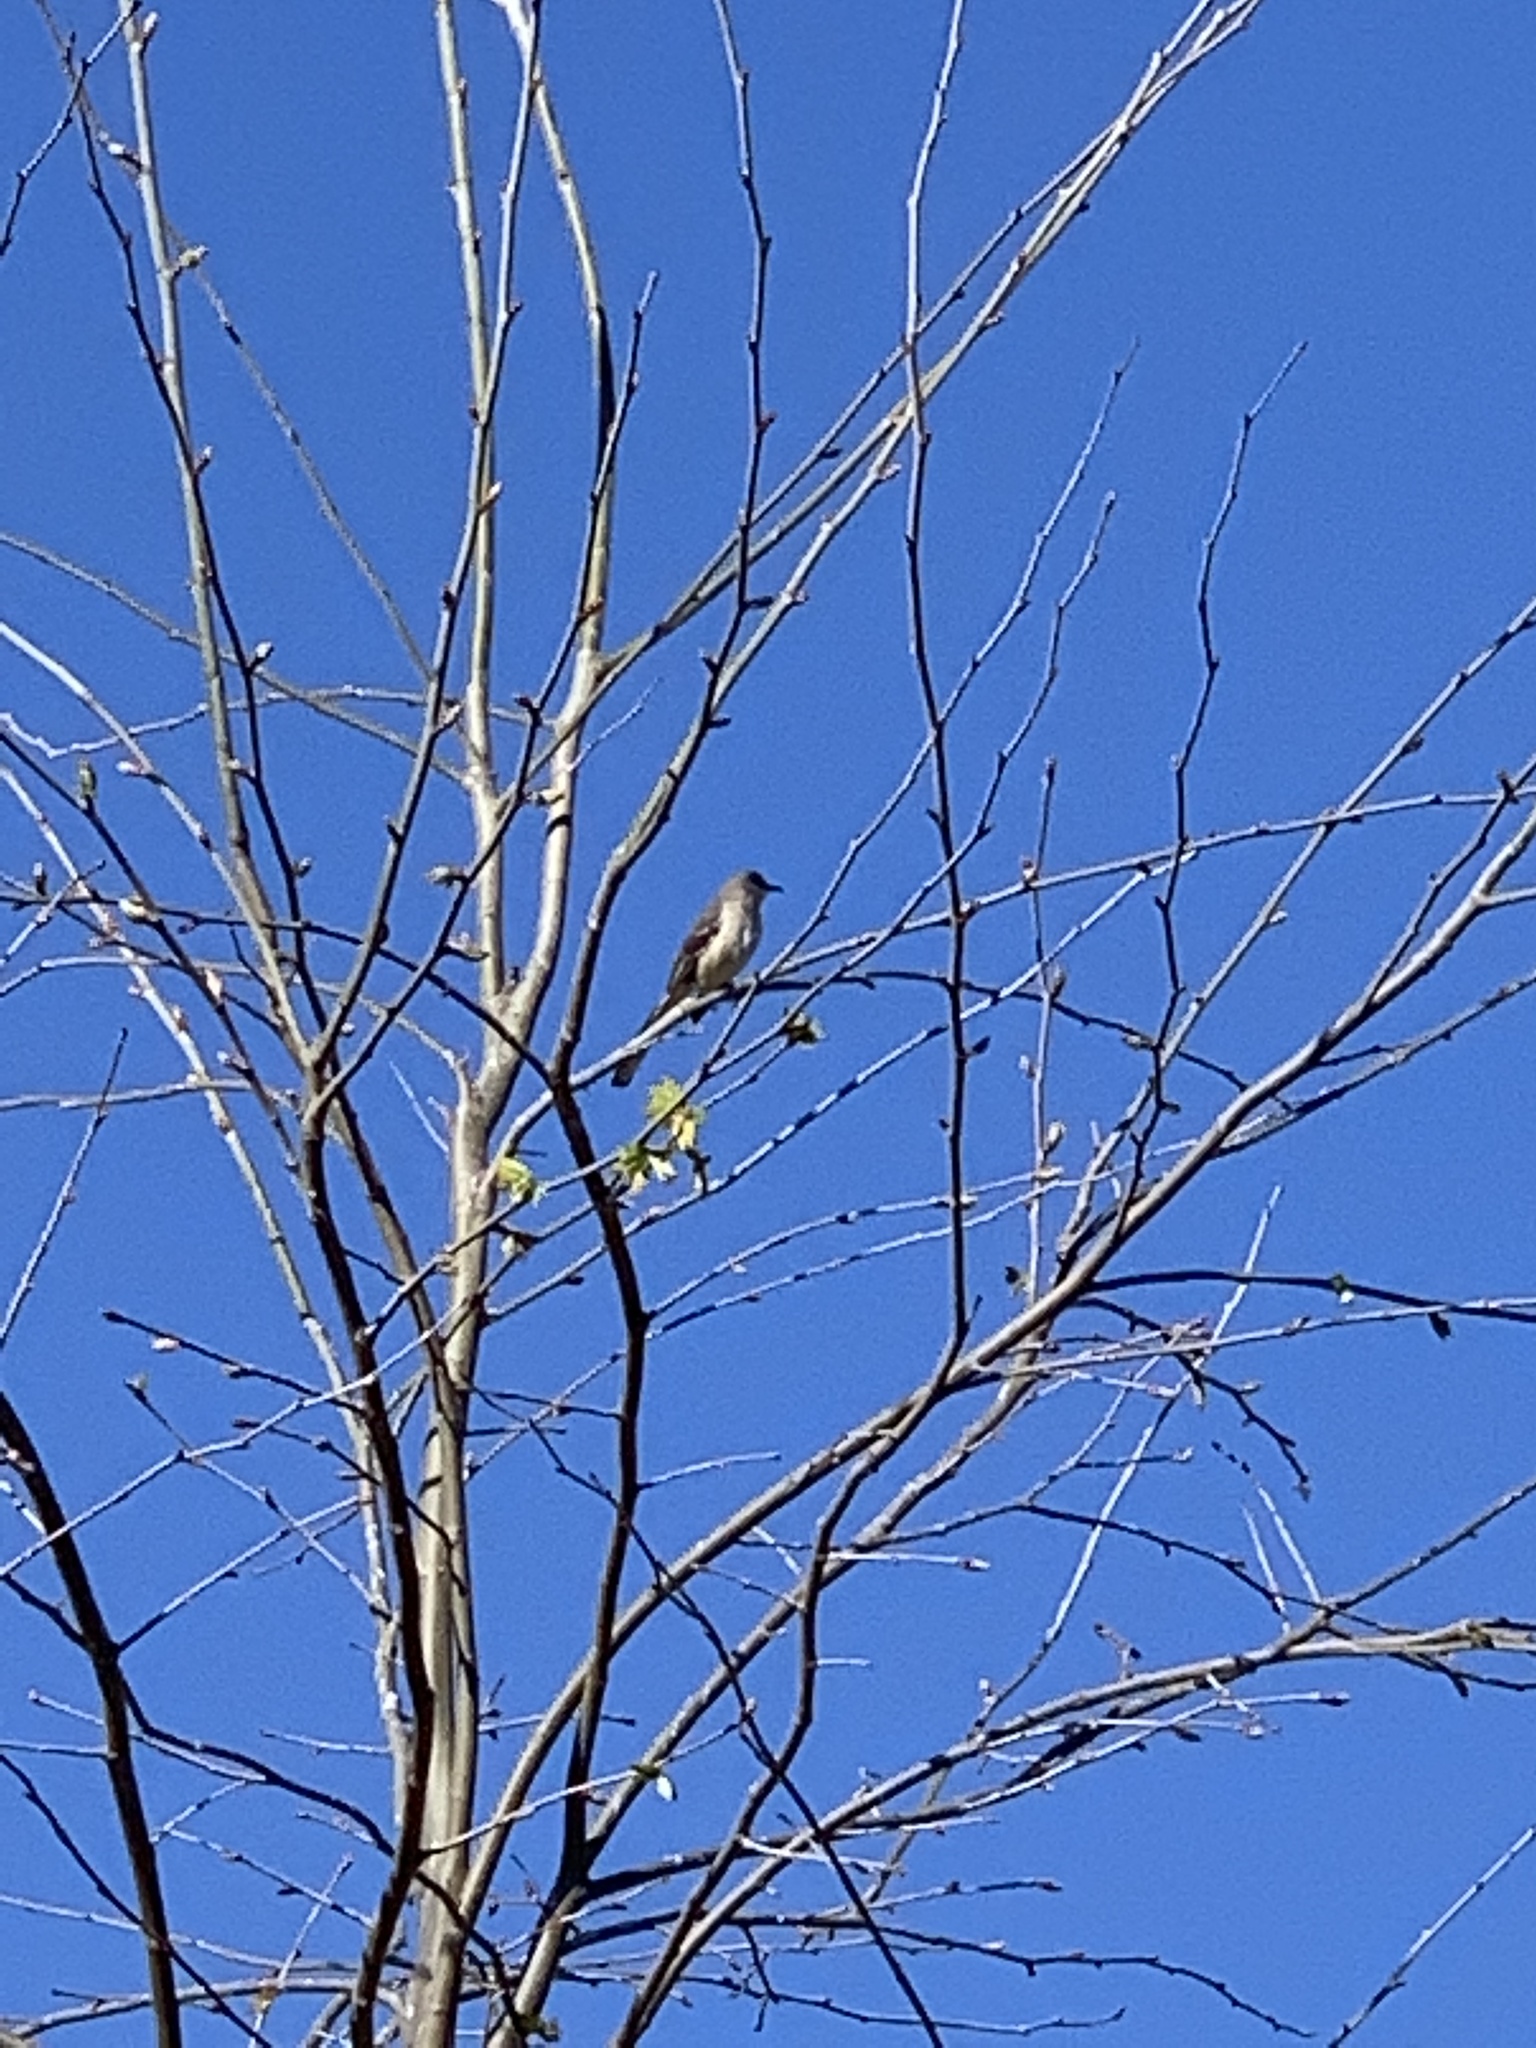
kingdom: Animalia
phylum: Chordata
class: Aves
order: Passeriformes
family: Mimidae
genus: Mimus
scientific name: Mimus polyglottos
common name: Northern mockingbird
